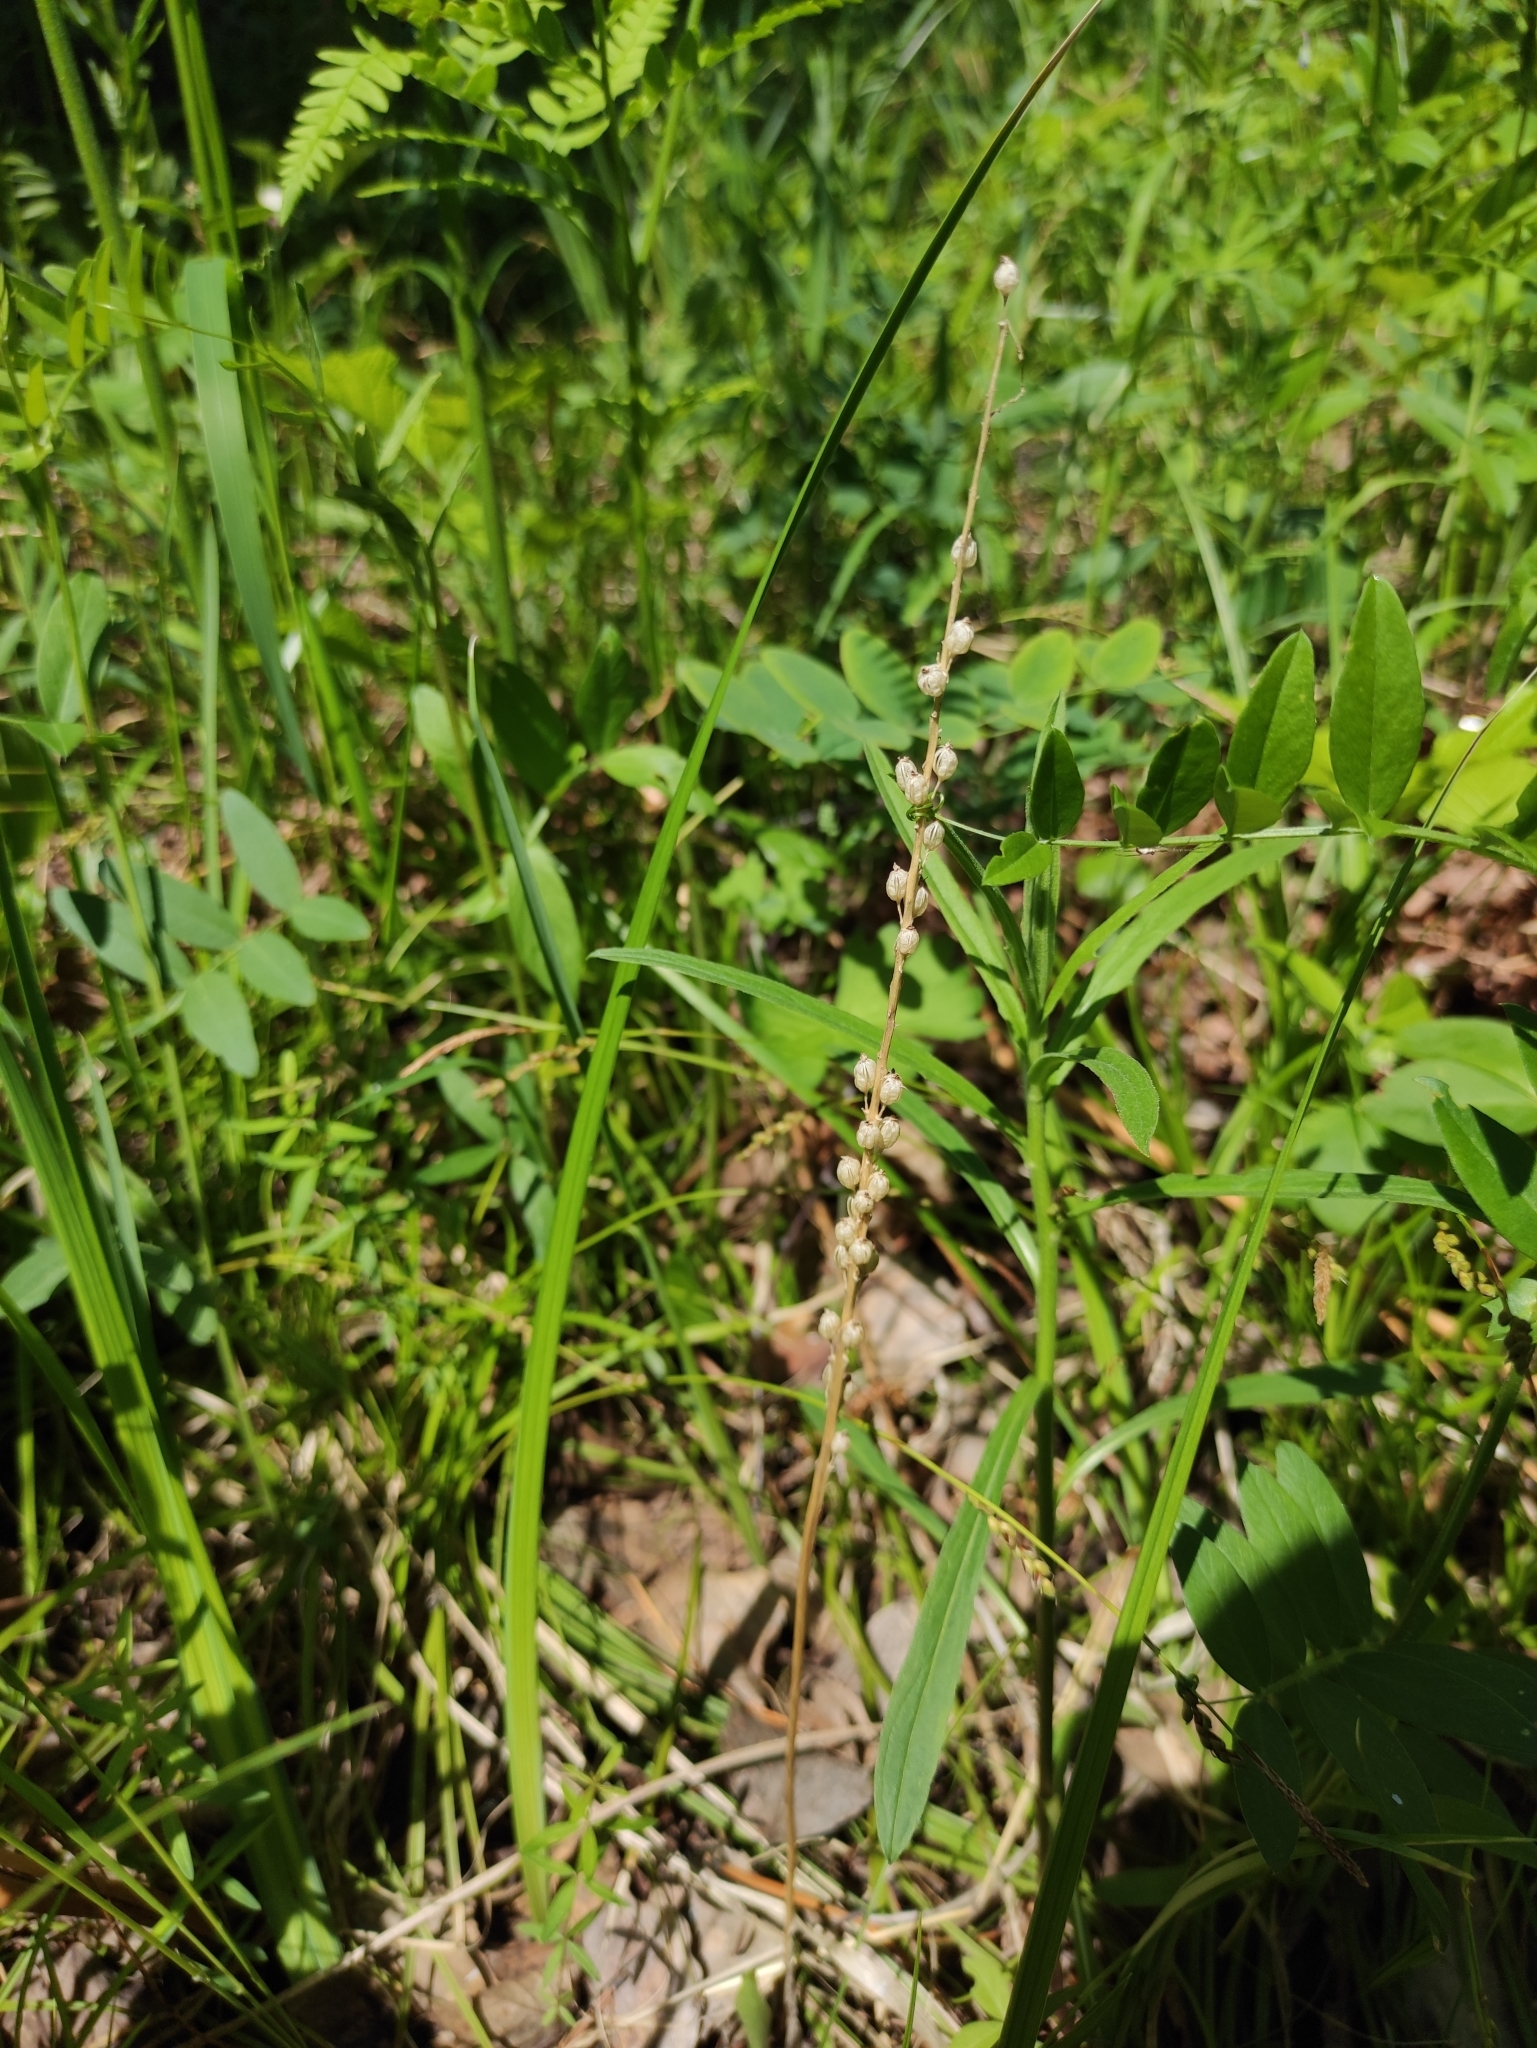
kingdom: Plantae
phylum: Tracheophyta
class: Liliopsida
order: Asparagales
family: Orchidaceae
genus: Malaxis
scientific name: Malaxis monophyllos
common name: White adder's-mouth
